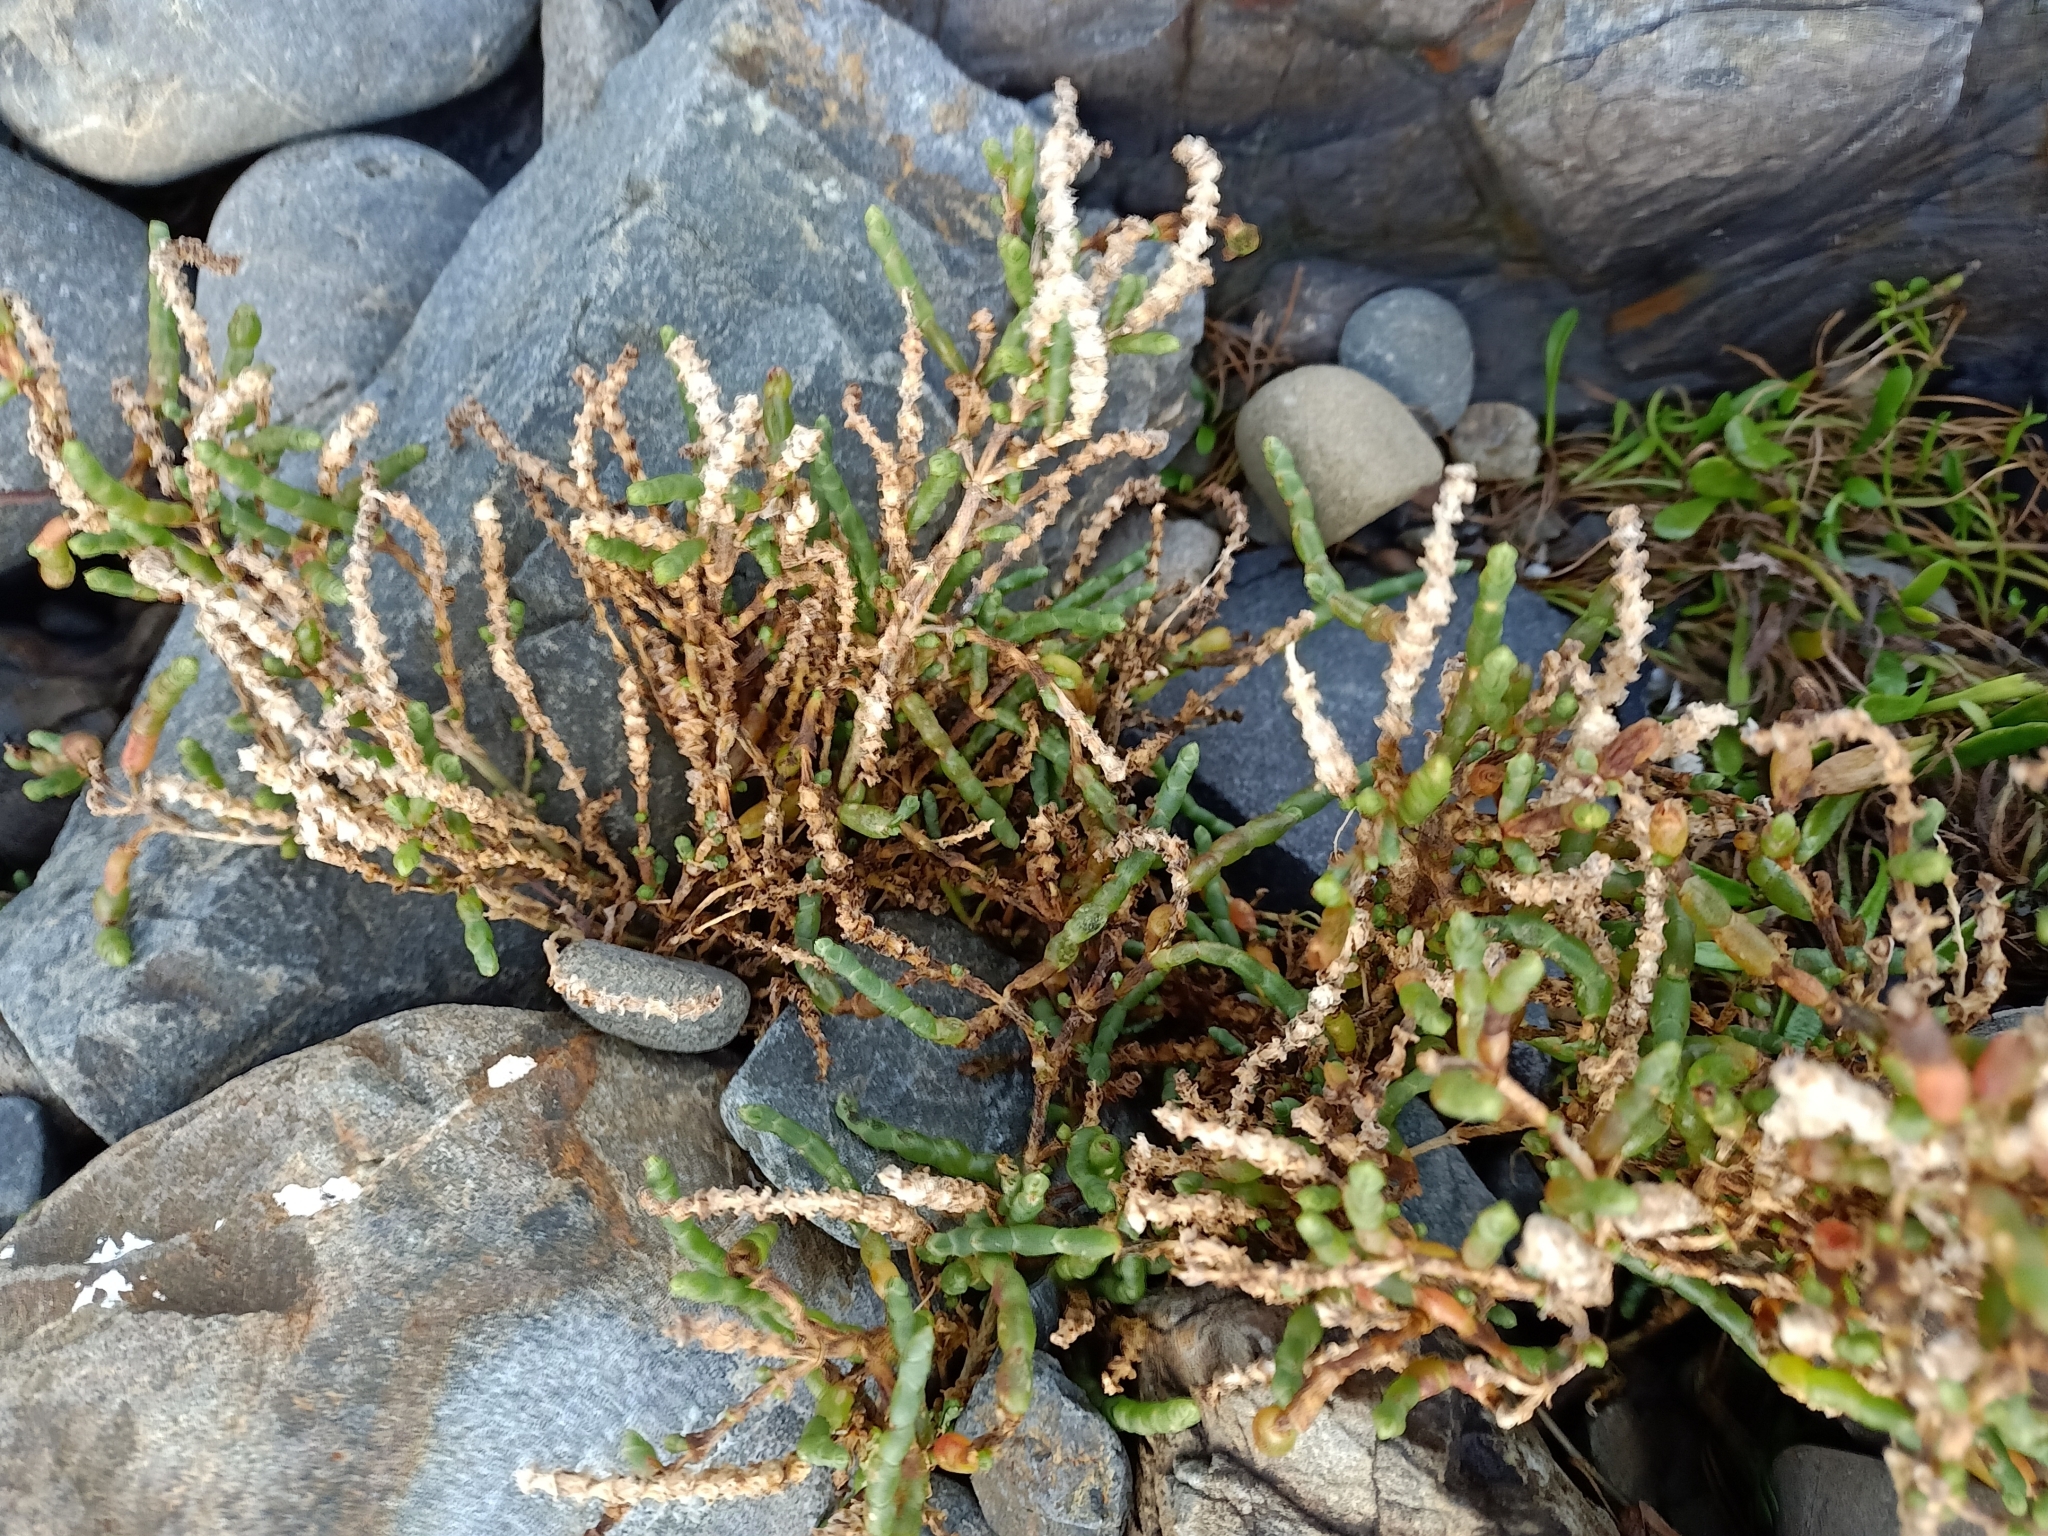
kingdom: Plantae
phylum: Tracheophyta
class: Magnoliopsida
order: Caryophyllales
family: Amaranthaceae
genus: Salicornia
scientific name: Salicornia quinqueflora
